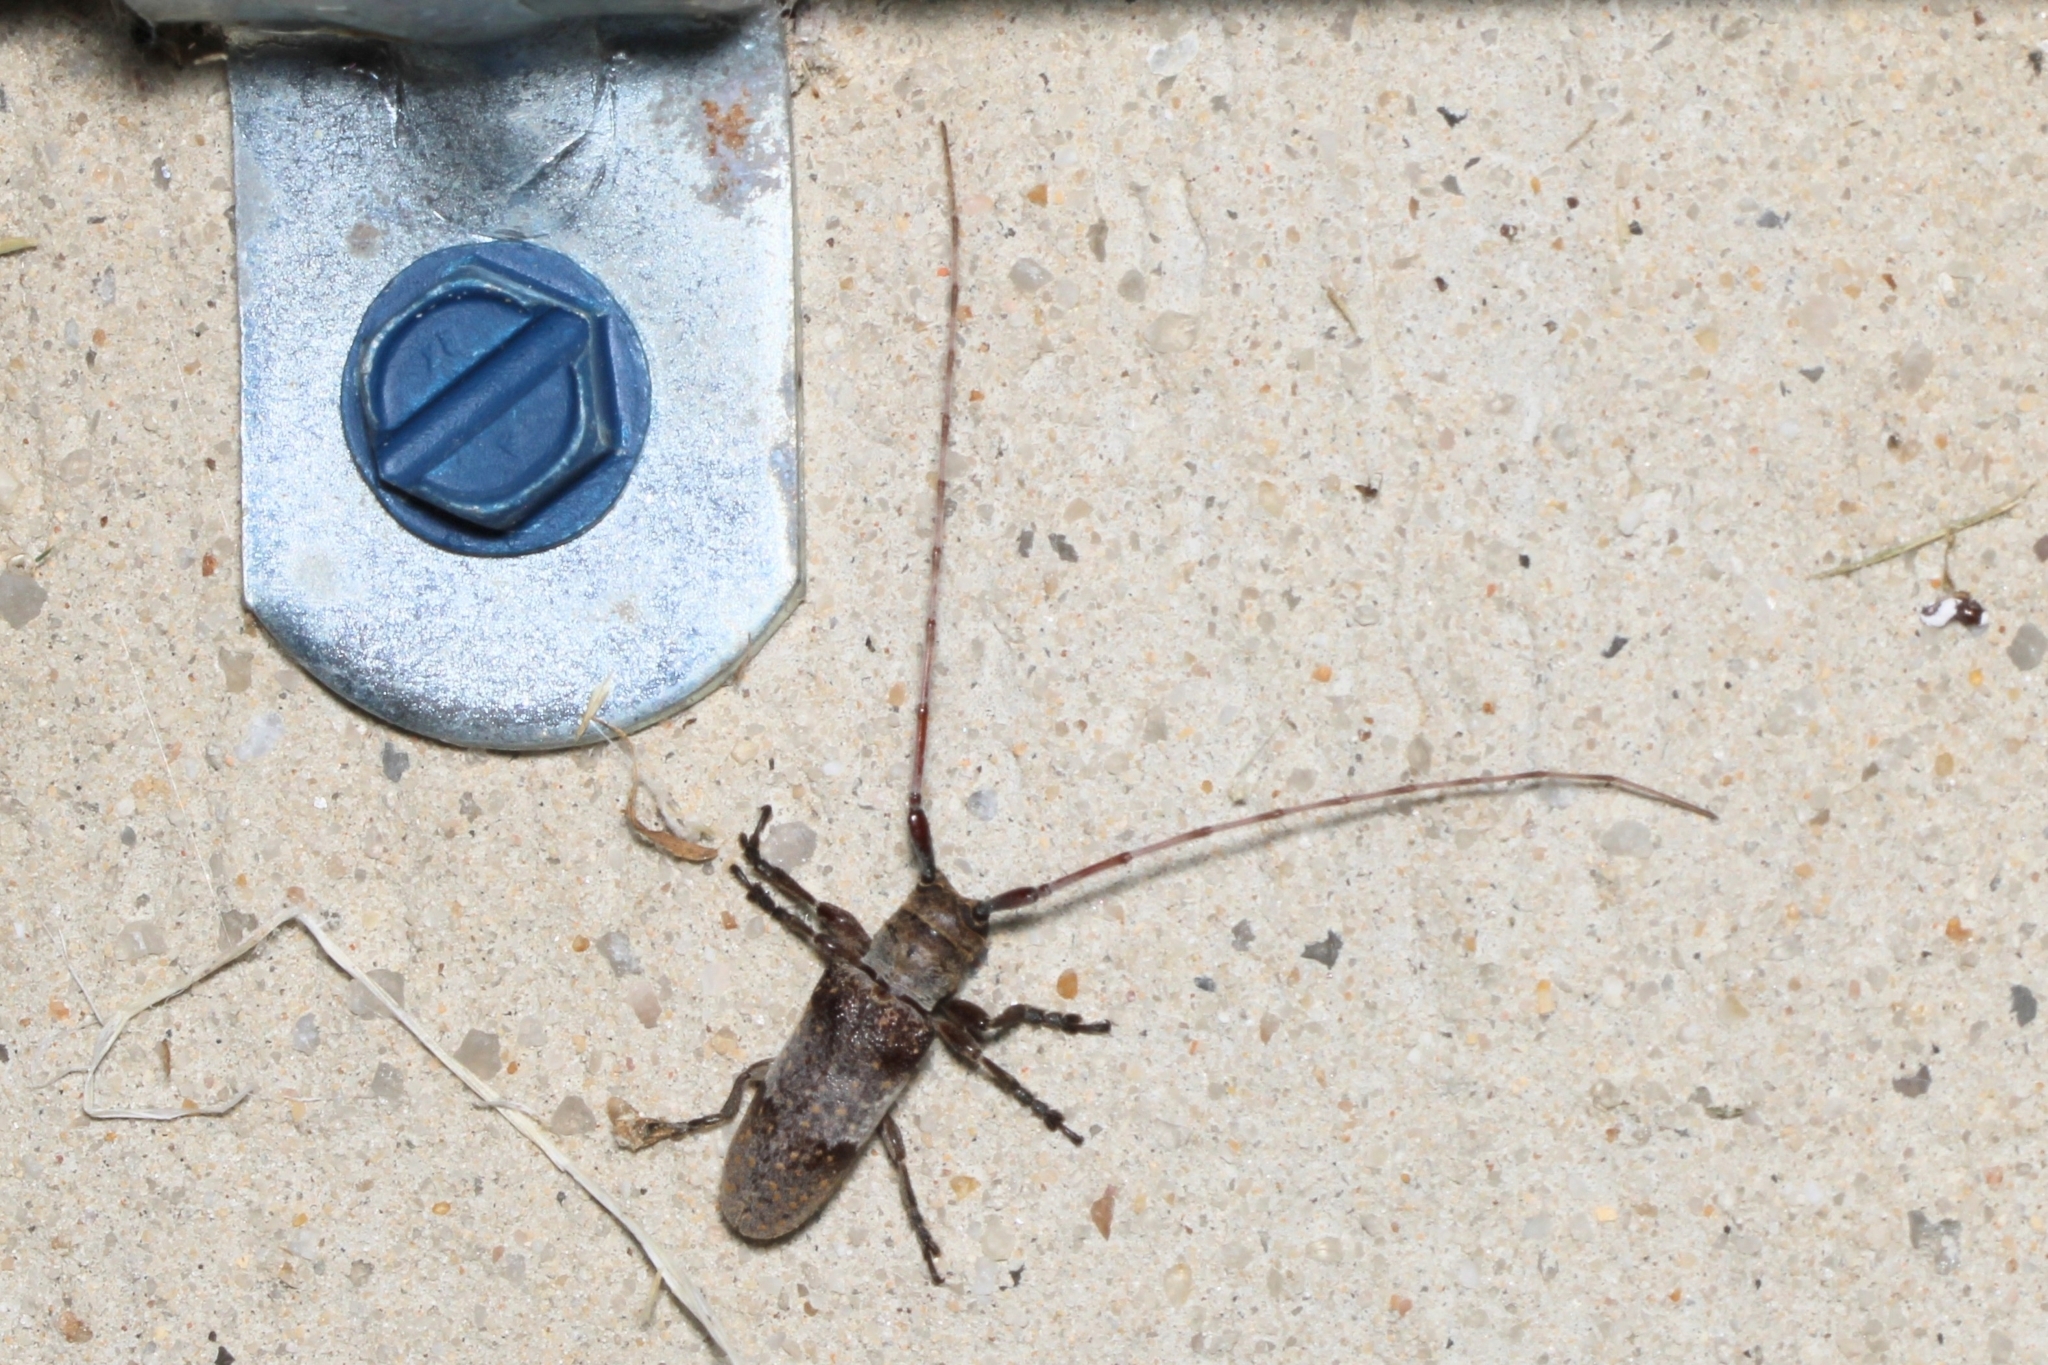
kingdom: Animalia
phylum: Arthropoda
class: Insecta
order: Coleoptera
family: Cerambycidae
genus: Oncideres
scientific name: Oncideres cingulata
